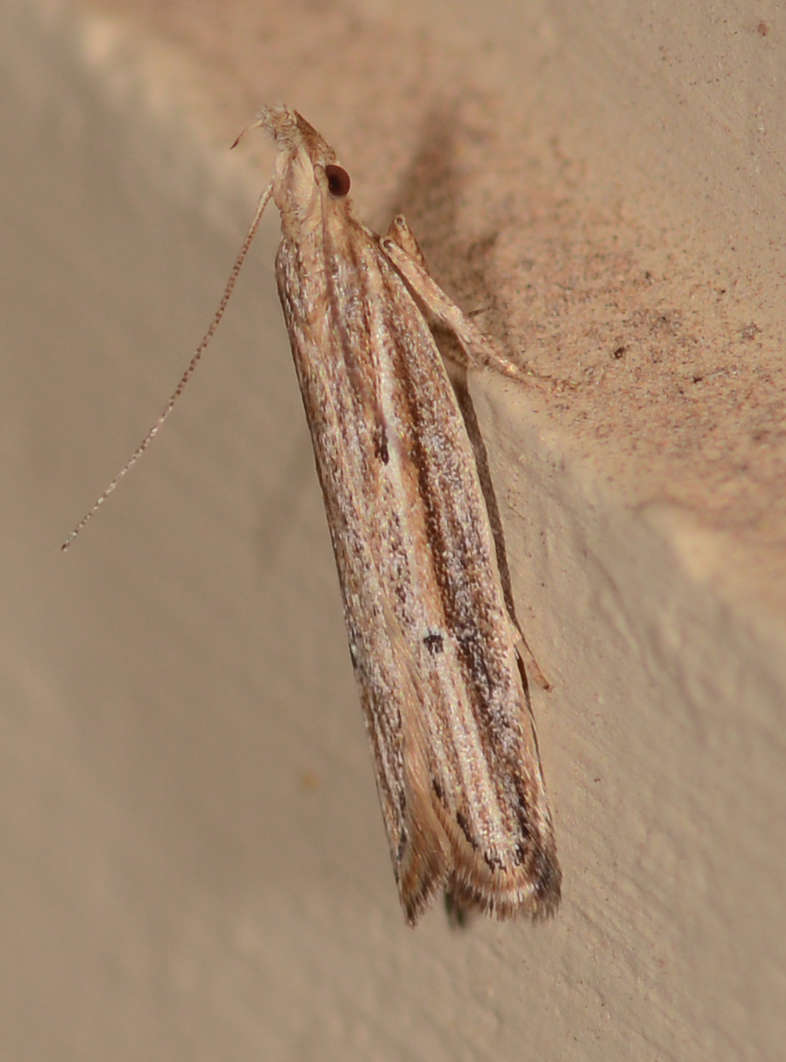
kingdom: Animalia
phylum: Arthropoda
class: Insecta
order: Lepidoptera
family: Depressariidae
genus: Eutorna
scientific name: Eutorna pabulicola
